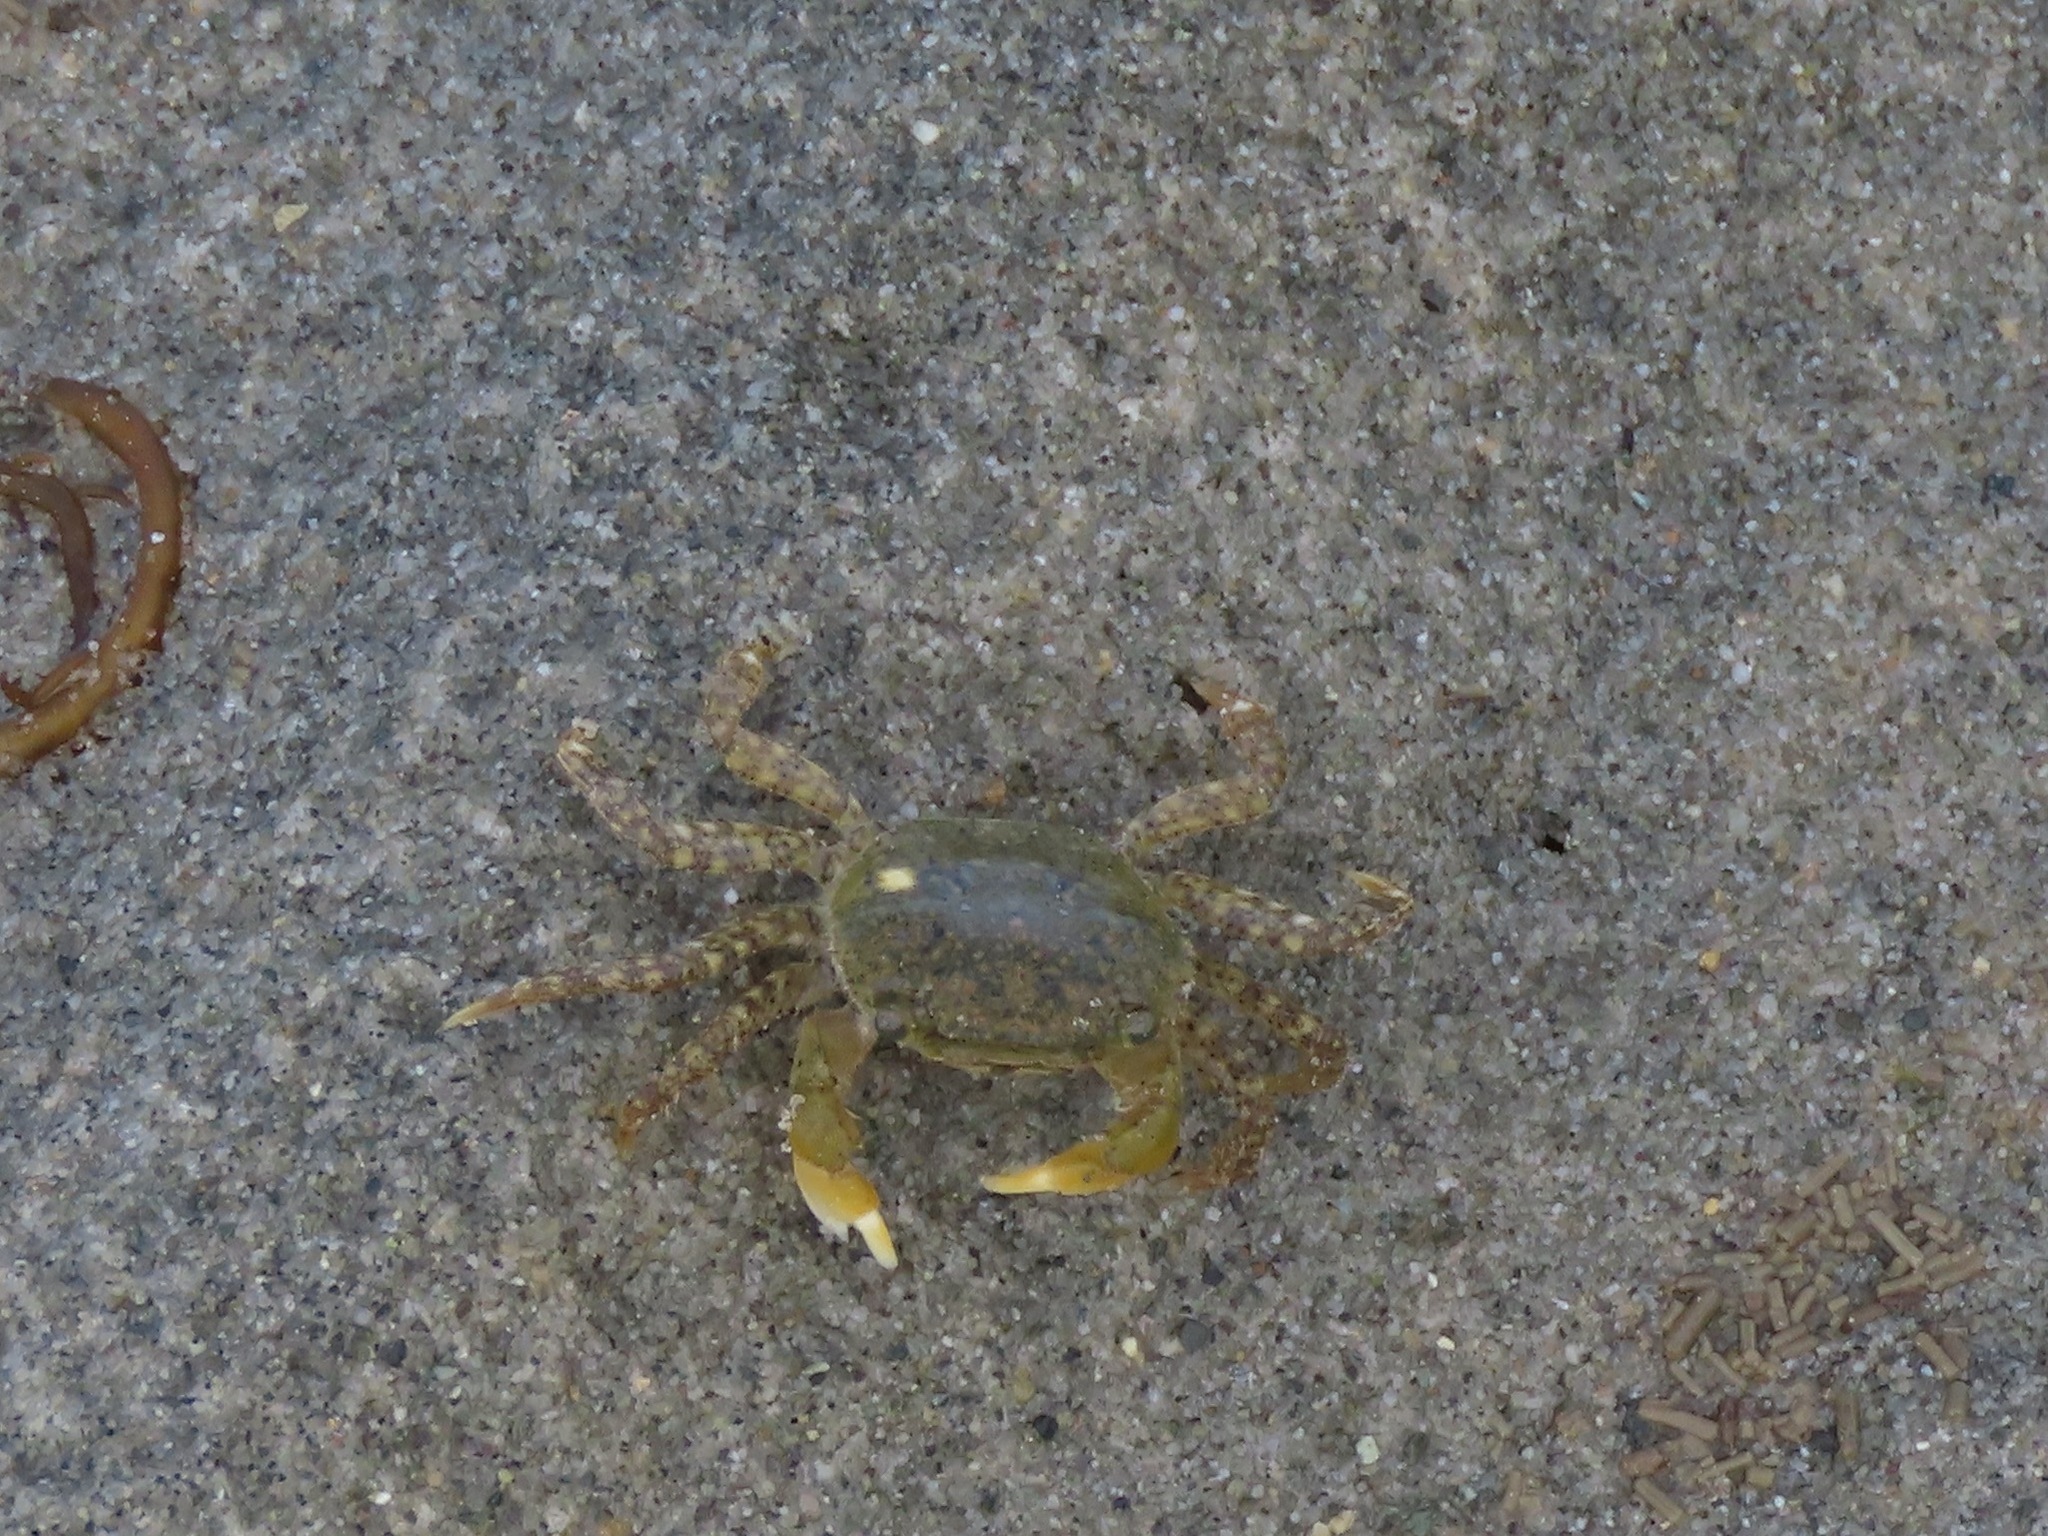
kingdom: Animalia
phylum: Arthropoda
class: Malacostraca
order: Decapoda
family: Varunidae
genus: Hemigrapsus
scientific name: Hemigrapsus oregonensis
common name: Yellow shore crab
